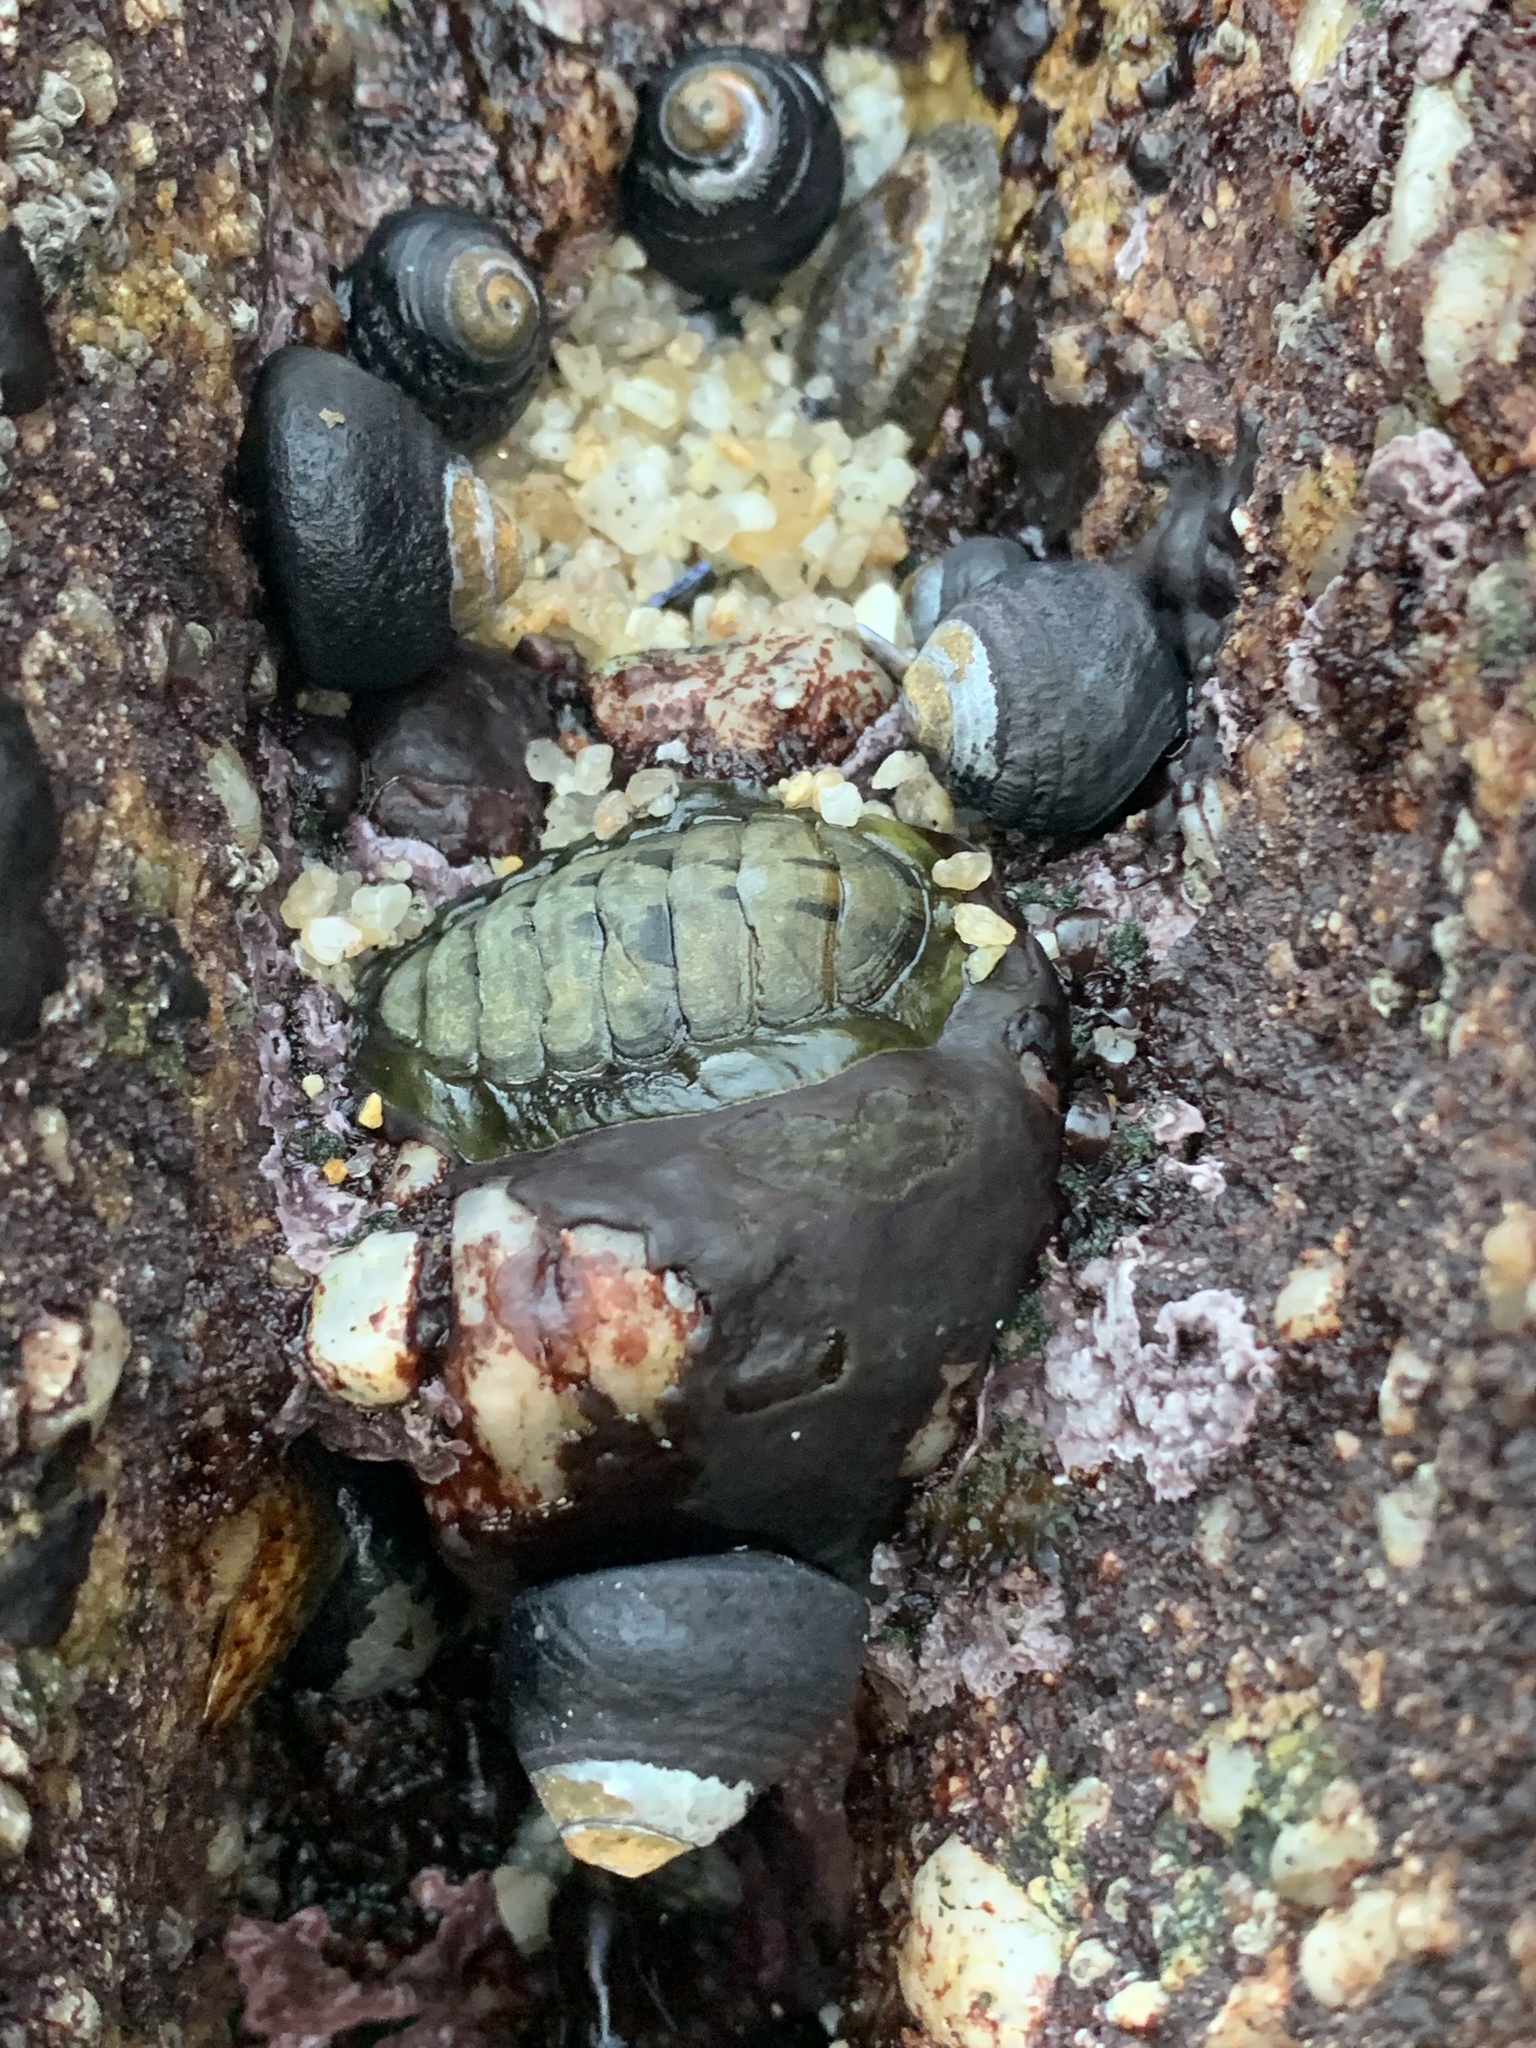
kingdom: Animalia
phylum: Mollusca
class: Polyplacophora
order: Chitonida
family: Tonicellidae
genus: Cyanoplax
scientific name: Cyanoplax hartwegii
